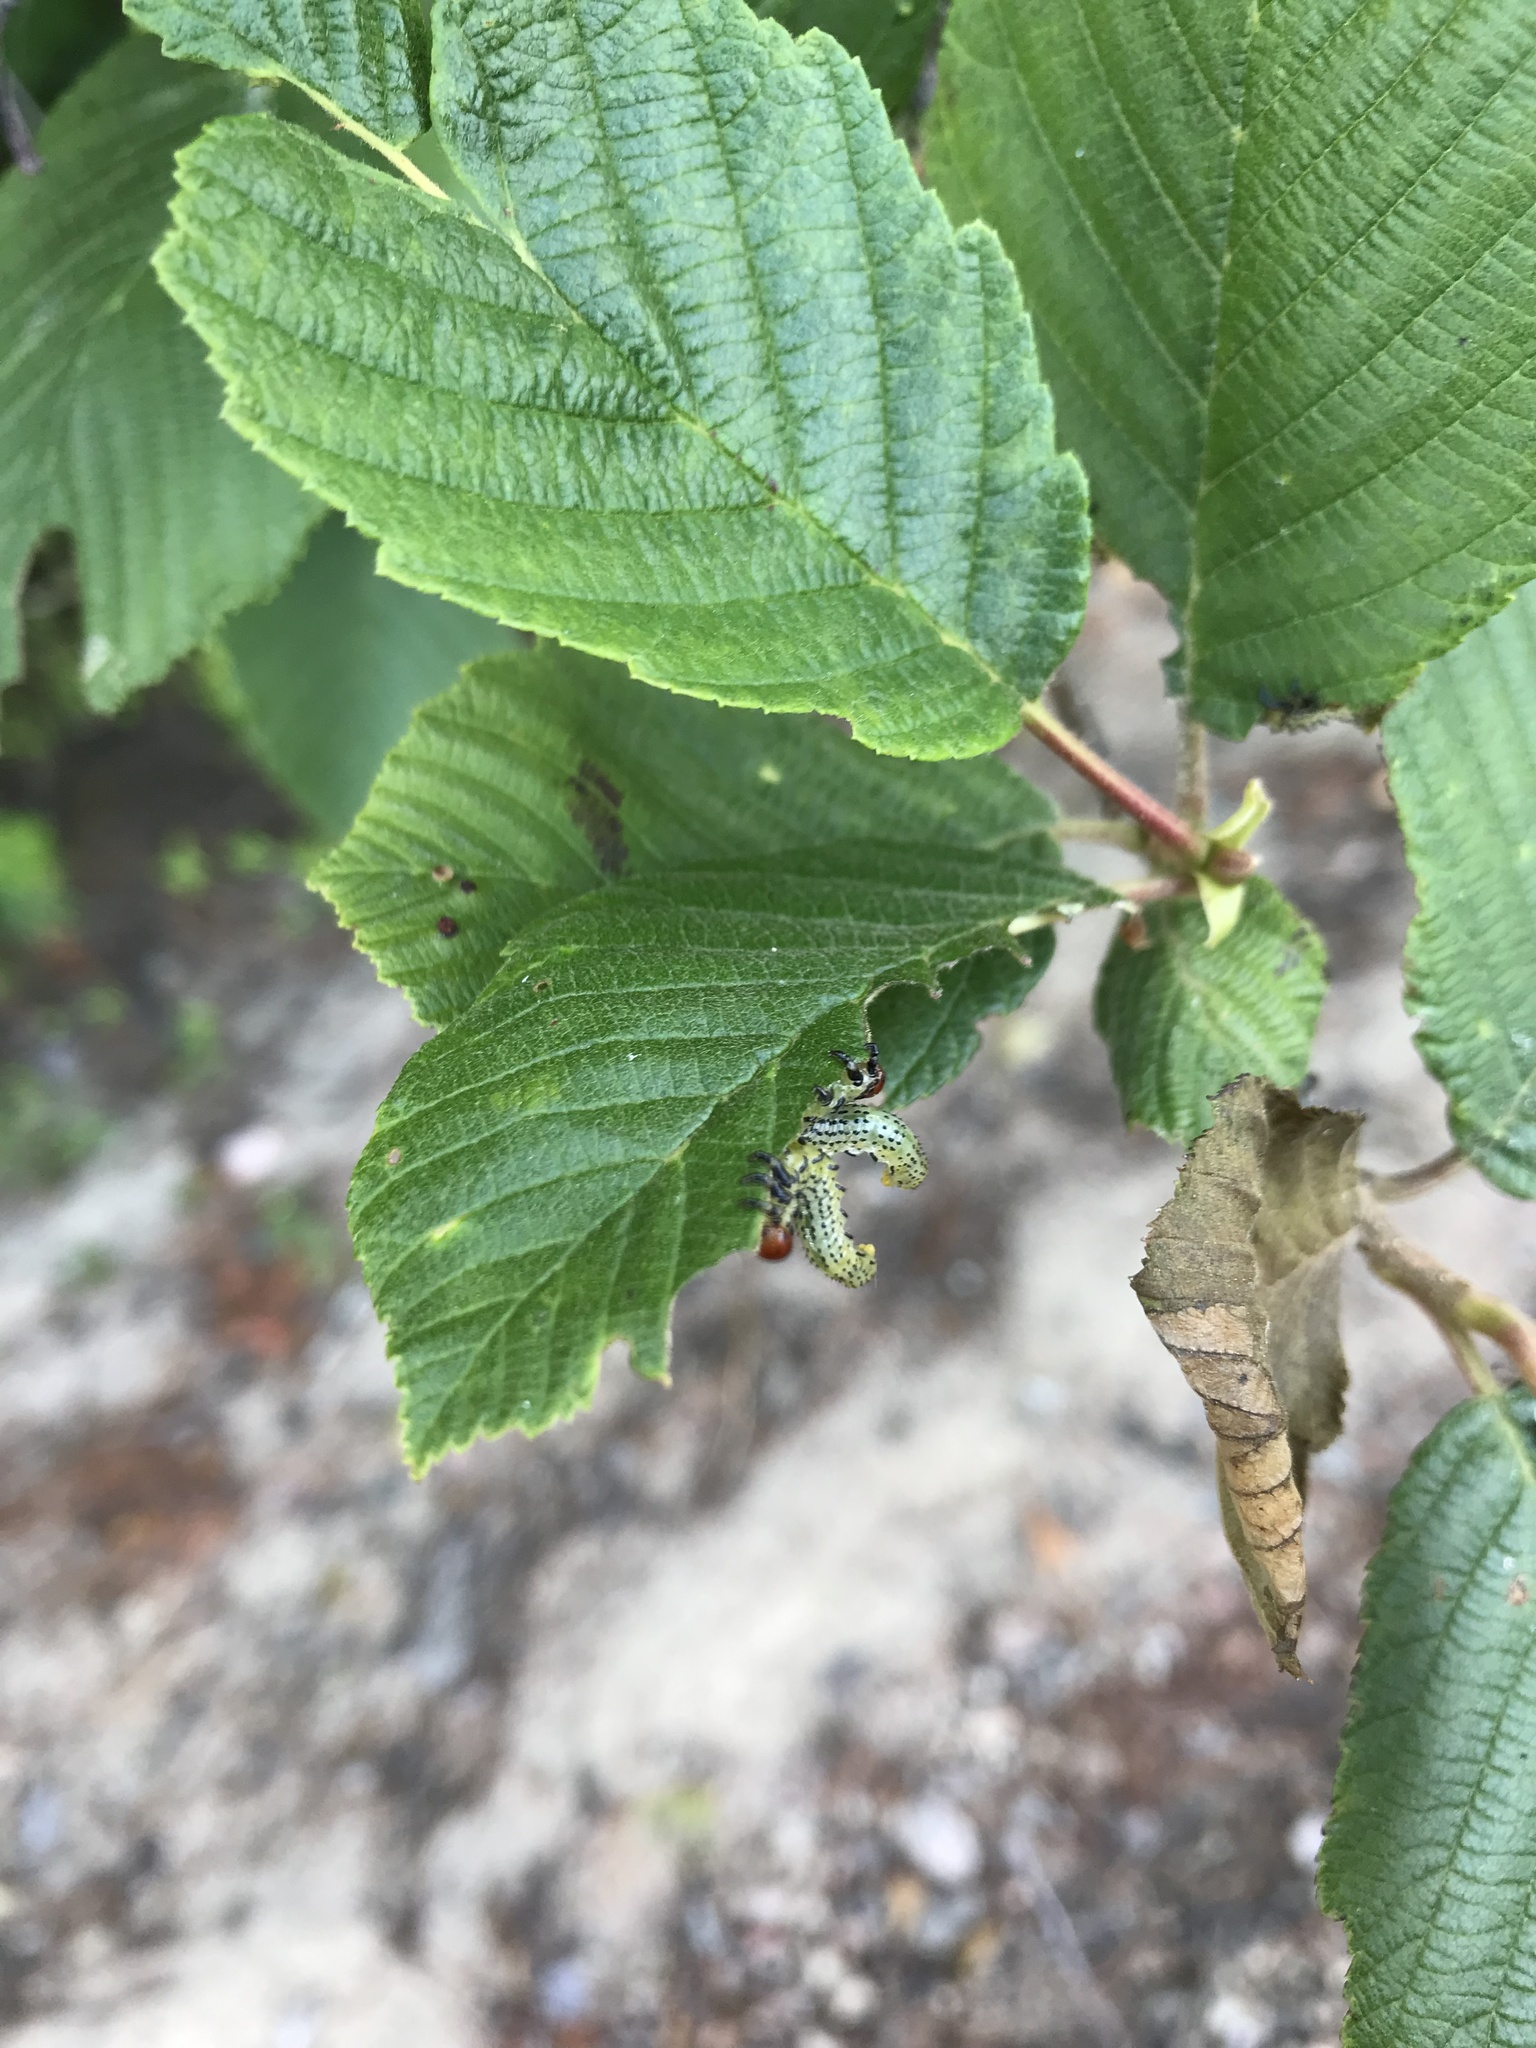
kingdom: Plantae
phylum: Tracheophyta
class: Magnoliopsida
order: Fagales
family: Betulaceae
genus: Alnus
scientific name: Alnus incana
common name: Grey alder
